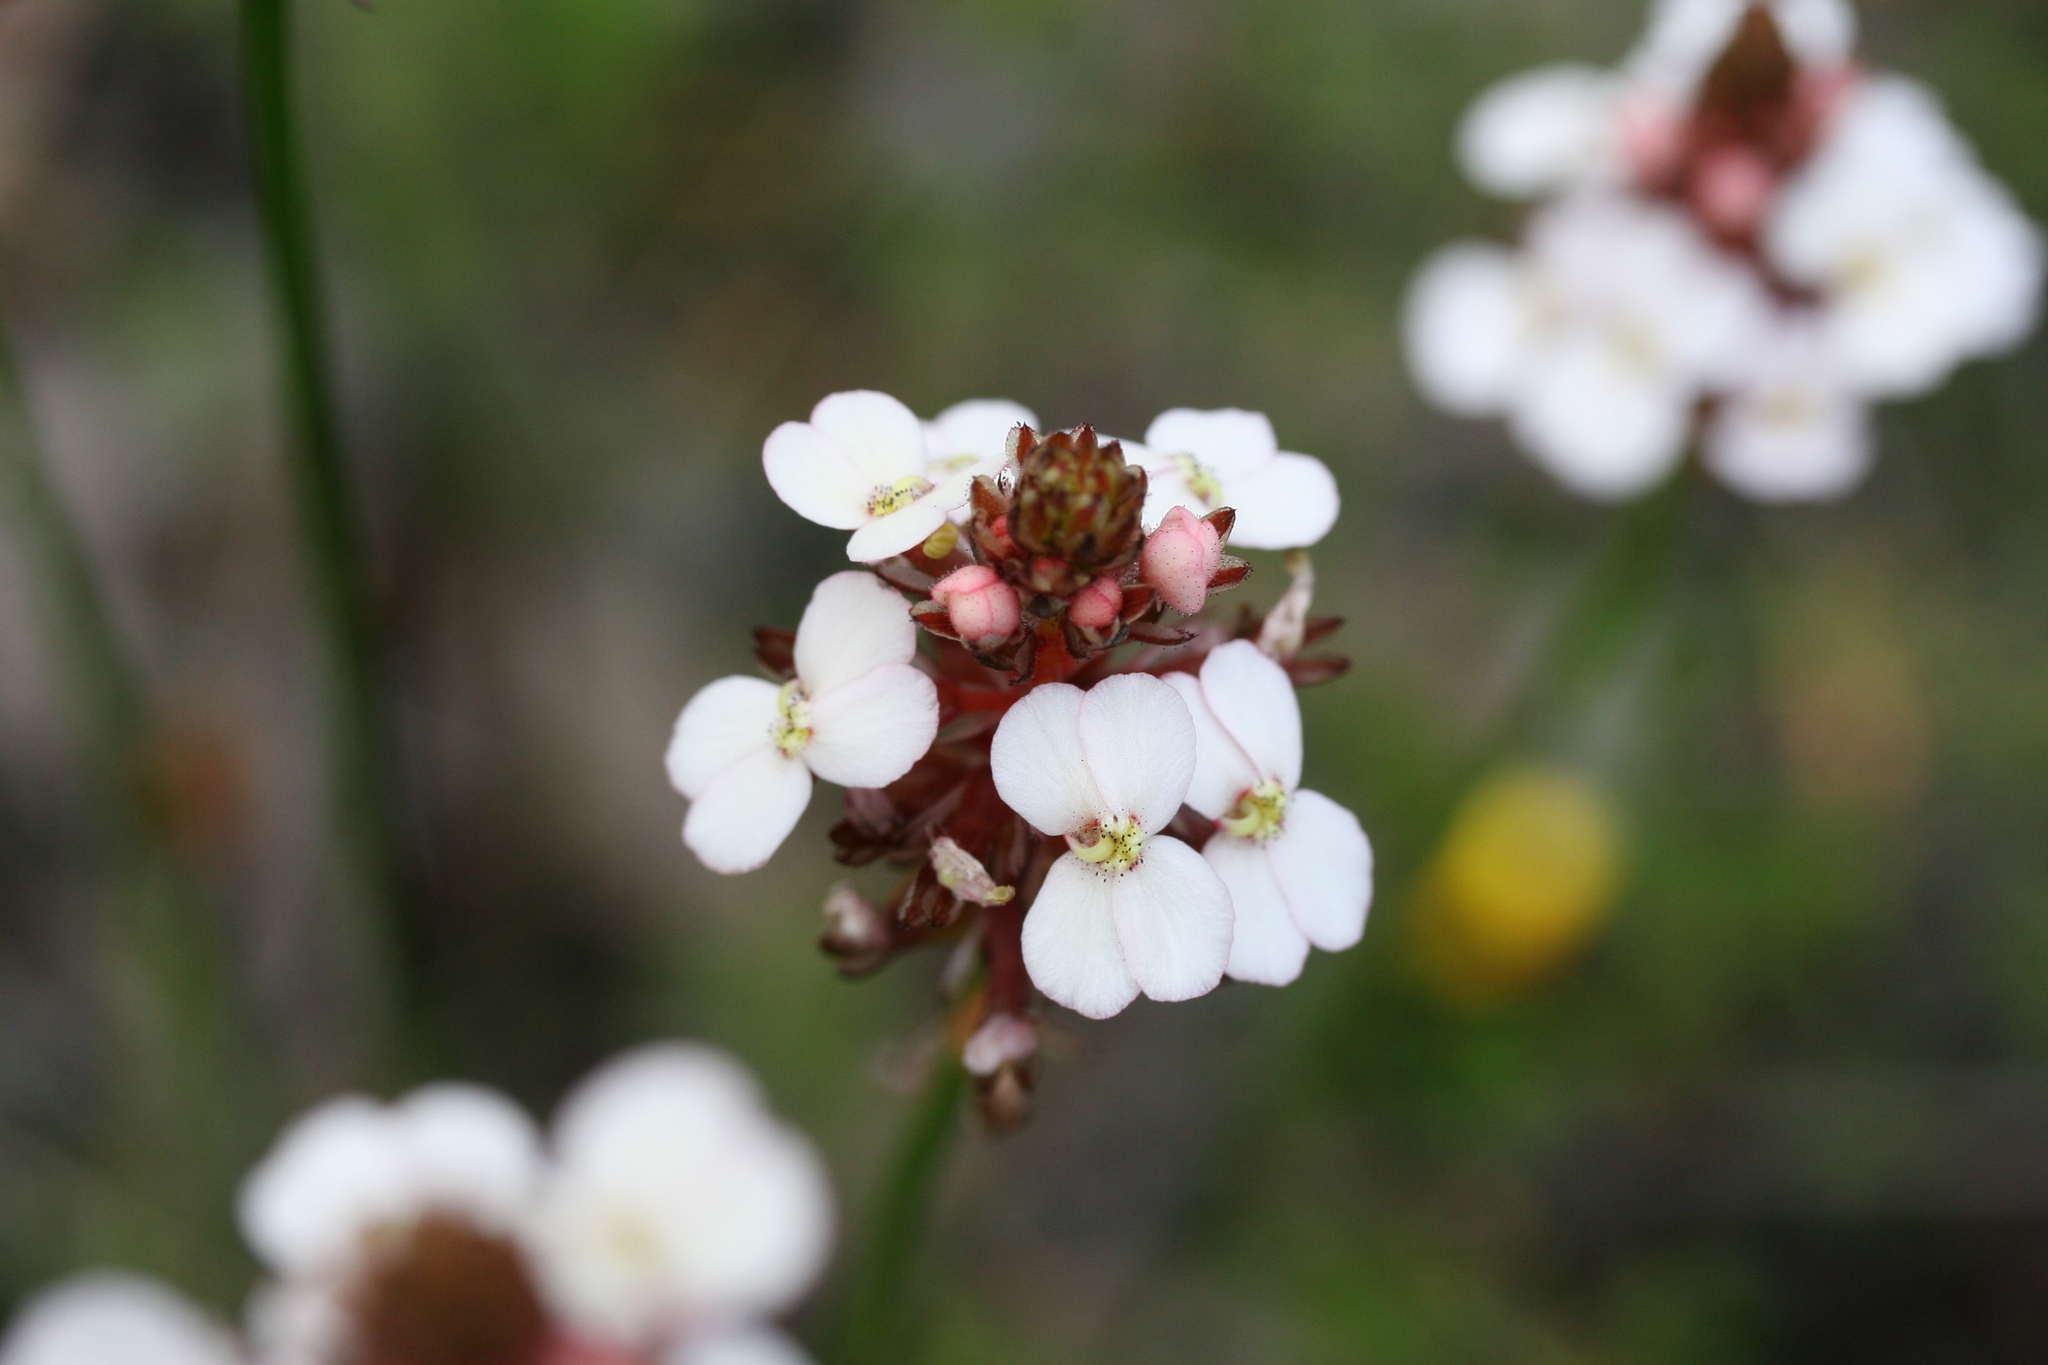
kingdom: Plantae
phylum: Tracheophyta
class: Magnoliopsida
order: Asterales
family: Stylidiaceae
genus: Stylidium
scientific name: Stylidium scariosum
